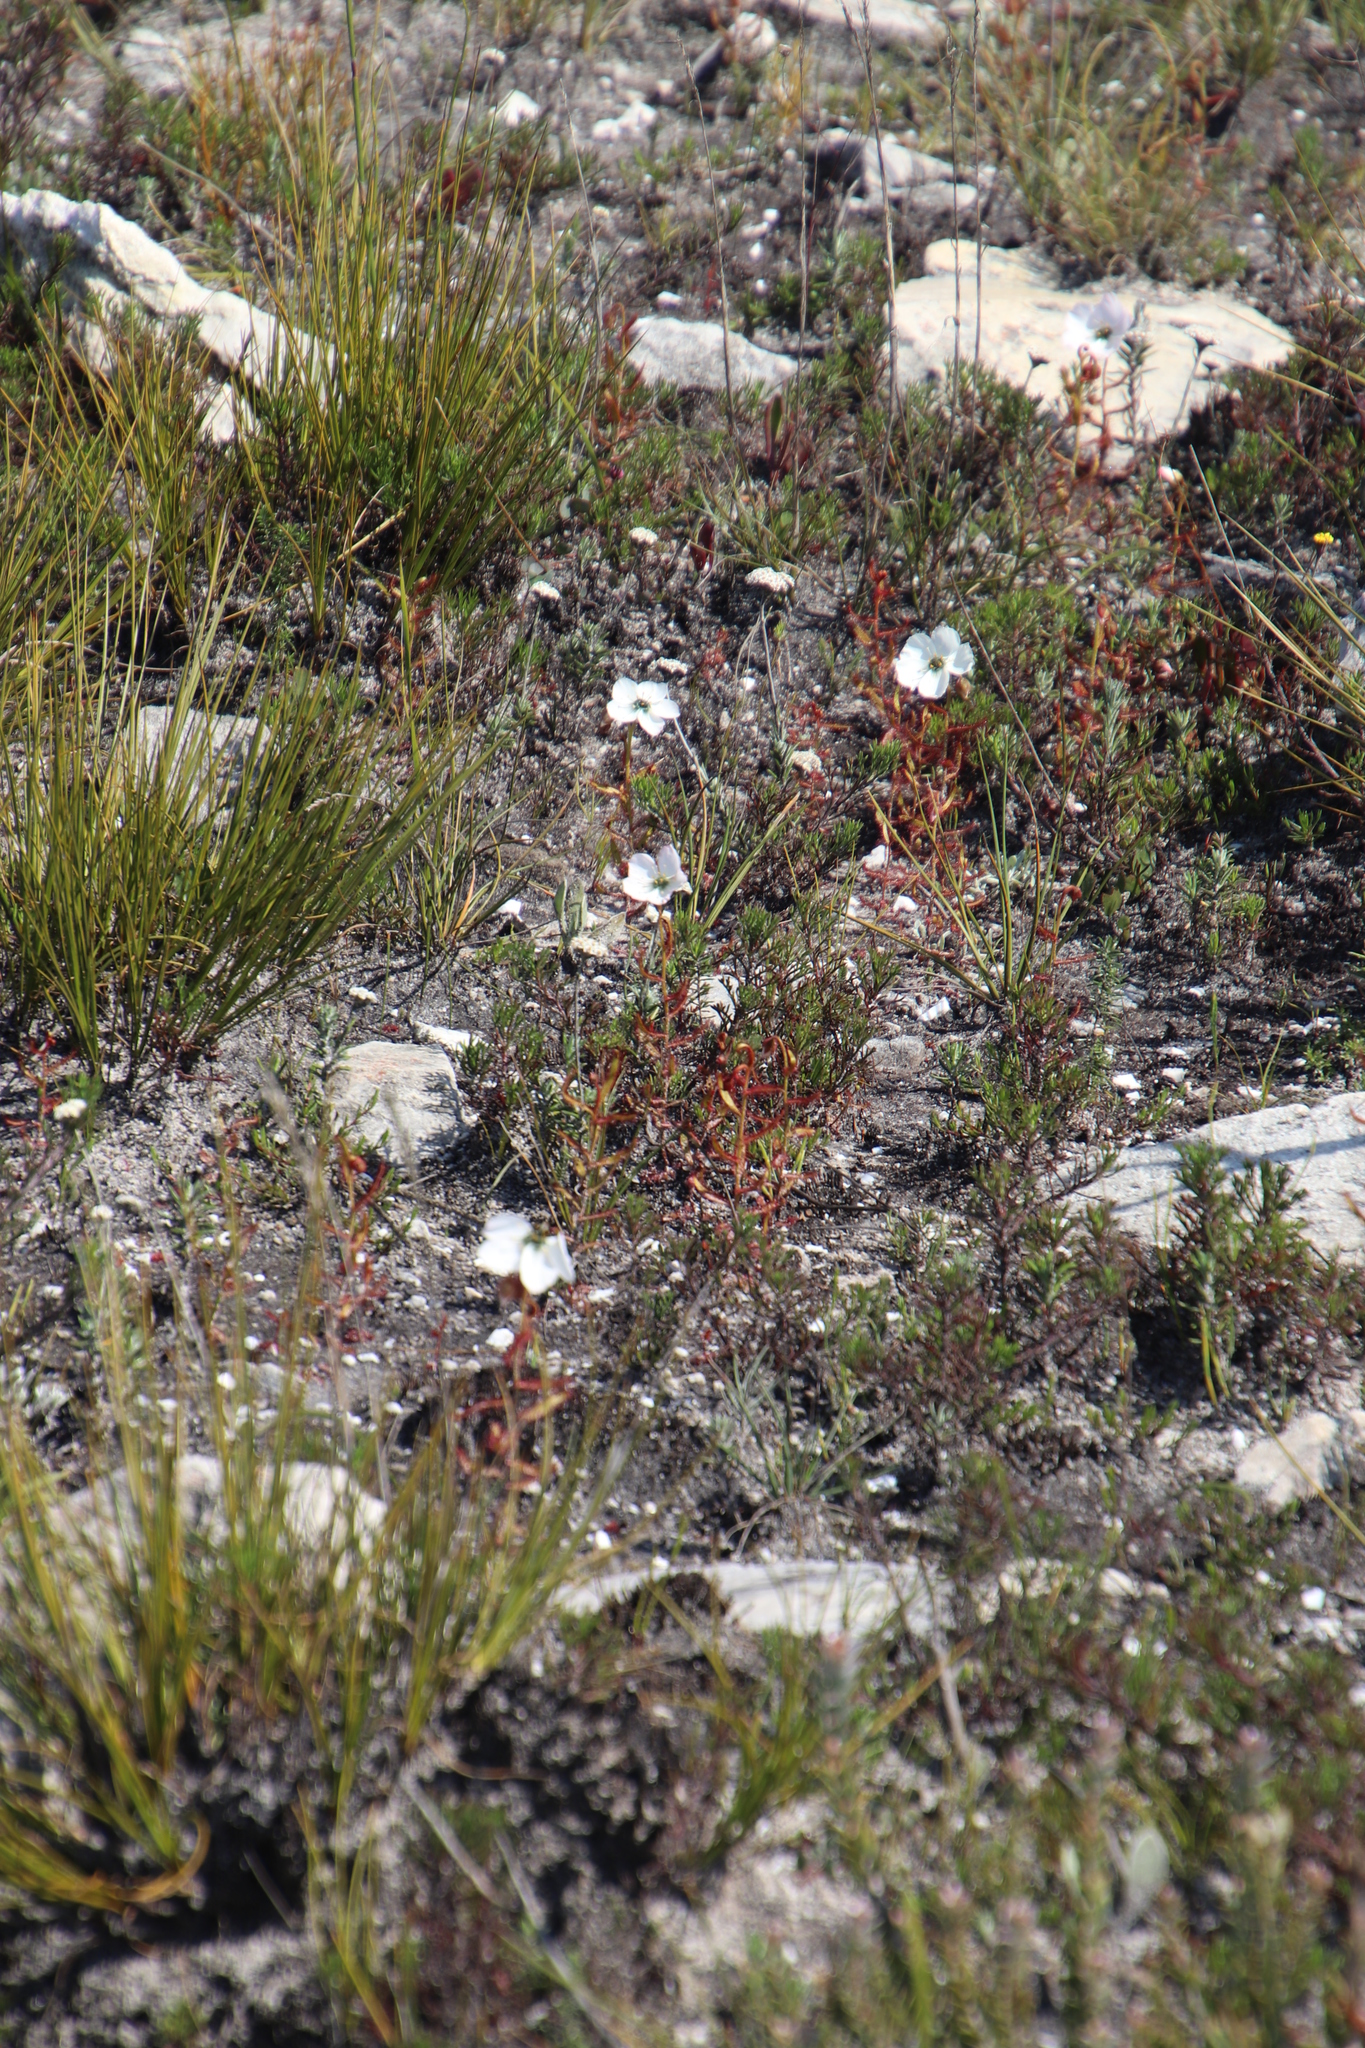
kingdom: Plantae
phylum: Tracheophyta
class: Magnoliopsida
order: Caryophyllales
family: Droseraceae
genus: Drosera
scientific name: Drosera cistiflora
